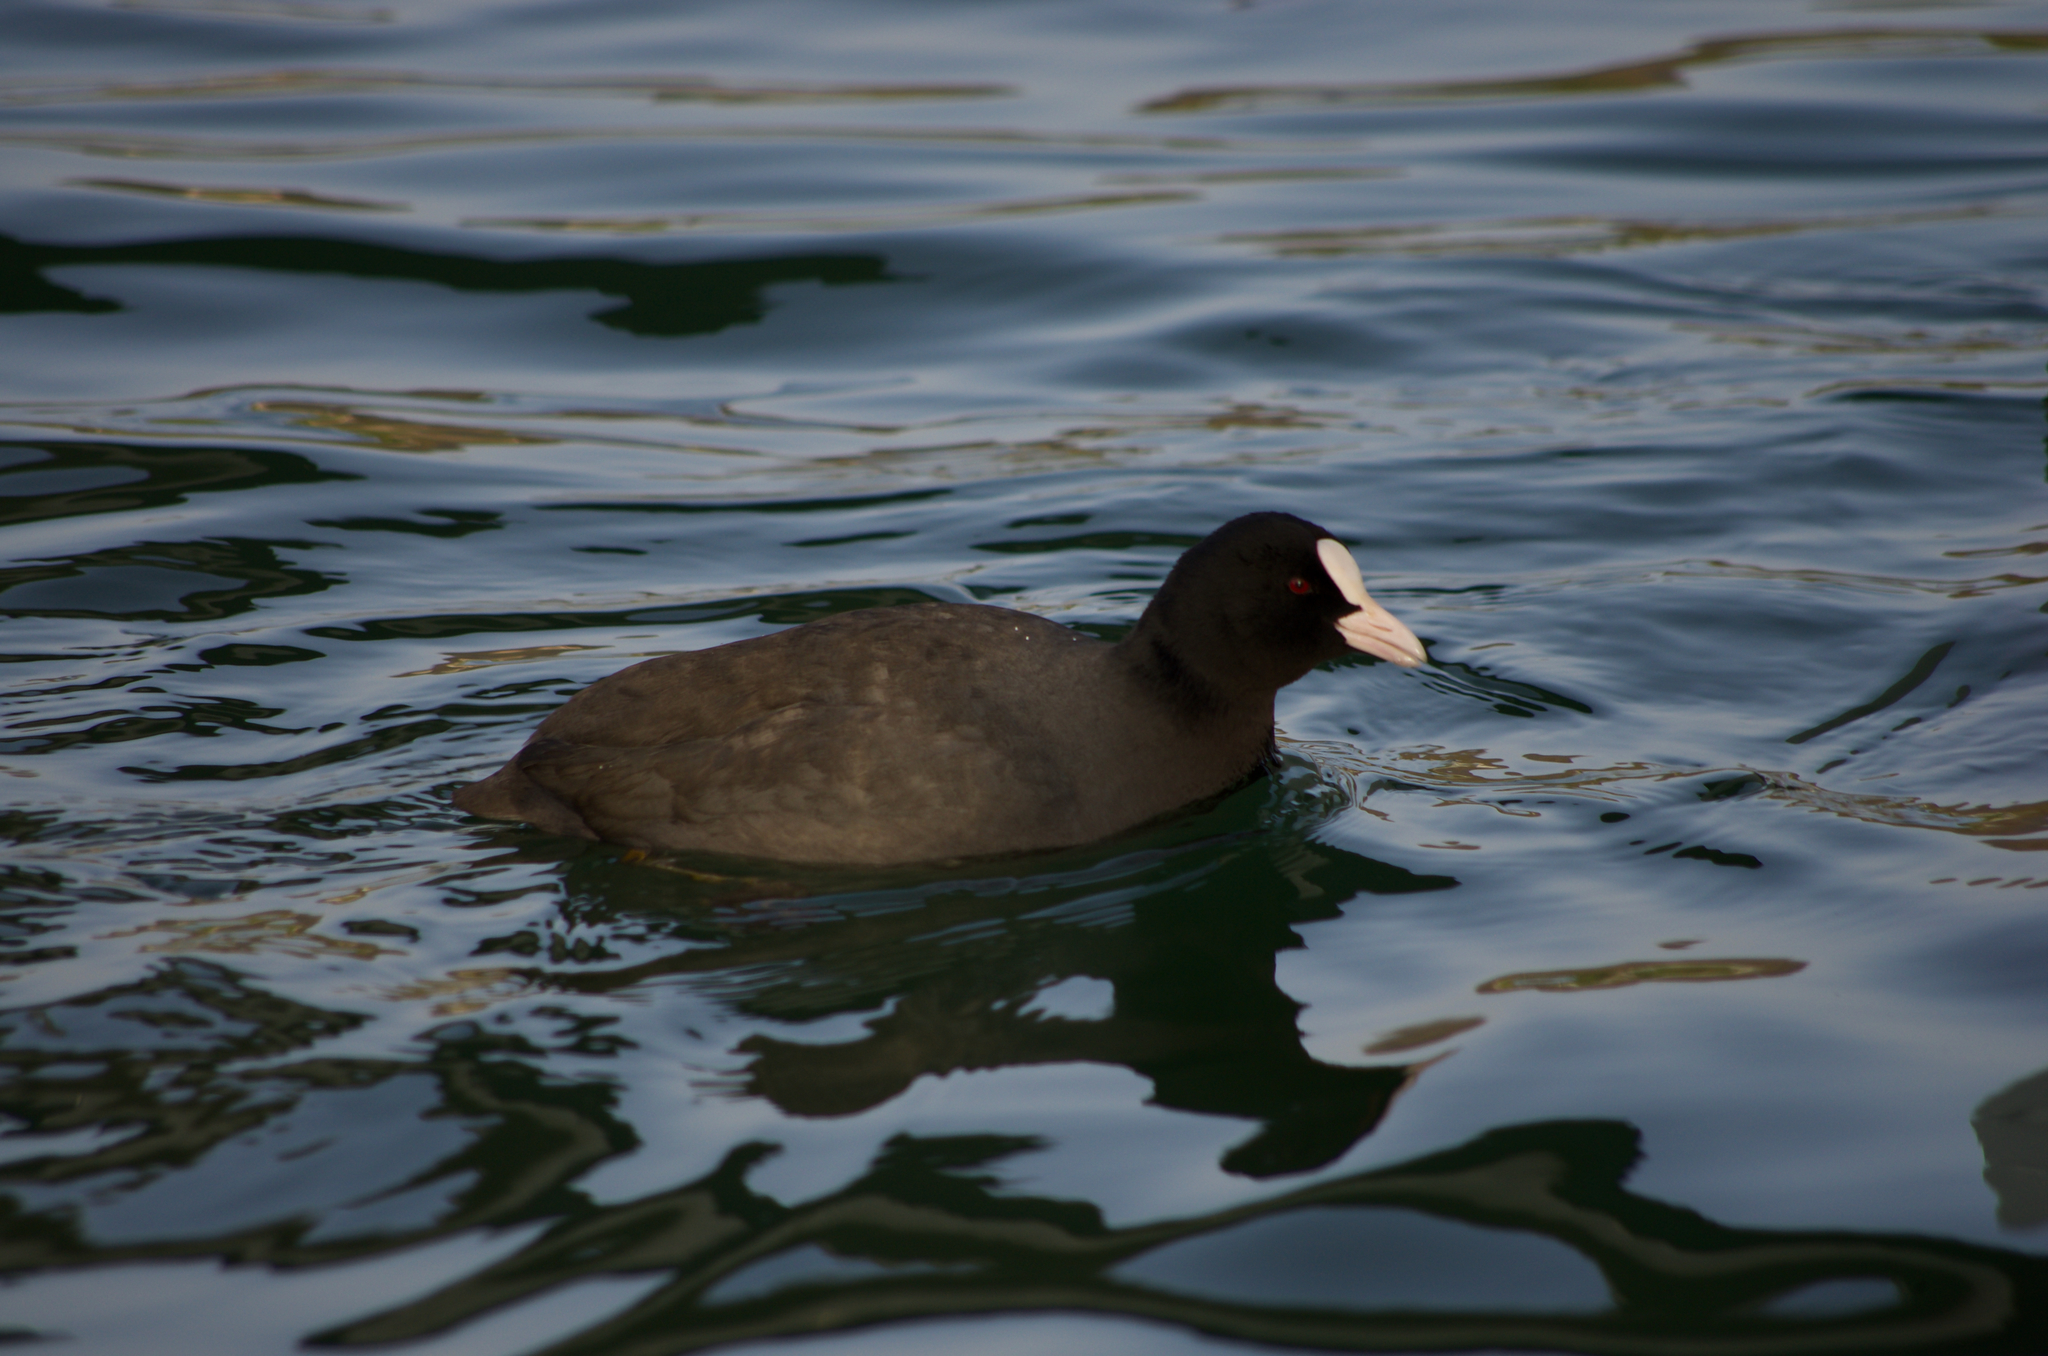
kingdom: Animalia
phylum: Chordata
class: Aves
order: Gruiformes
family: Rallidae
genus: Fulica
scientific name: Fulica atra
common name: Eurasian coot
